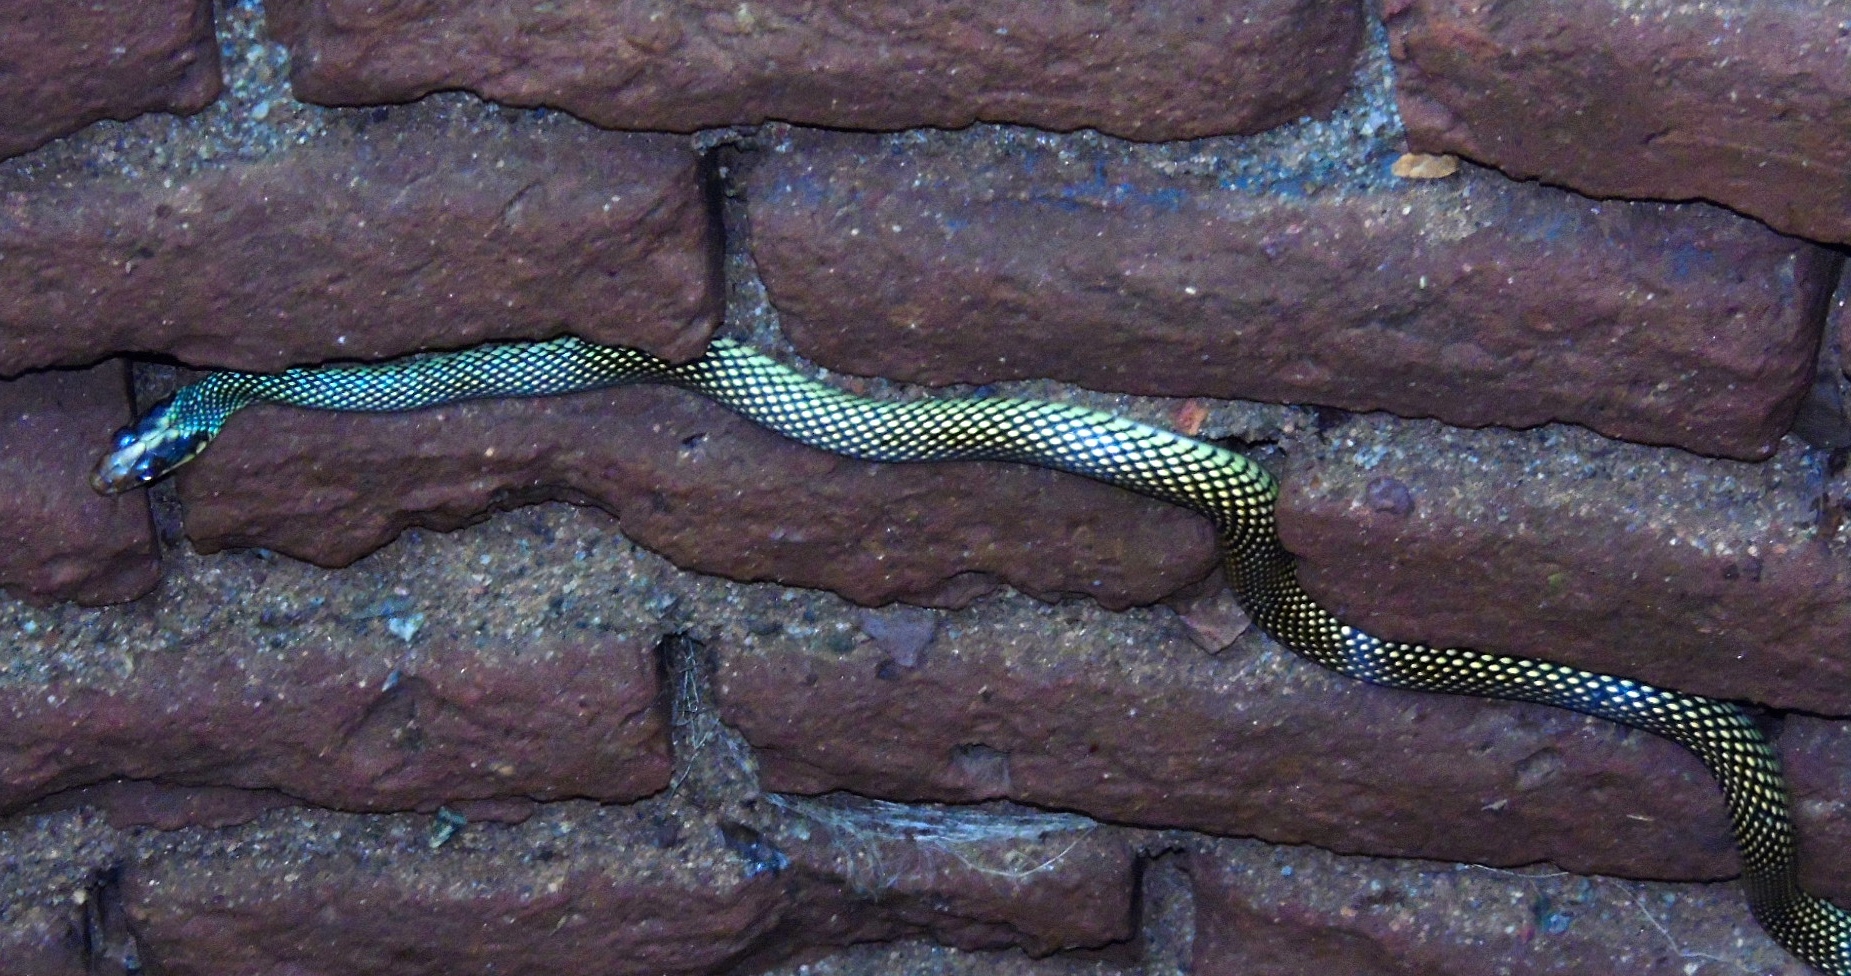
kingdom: Animalia
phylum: Chordata
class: Squamata
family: Colubridae
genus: Drymobius
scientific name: Drymobius margaritiferus
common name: Central american speckled racer
